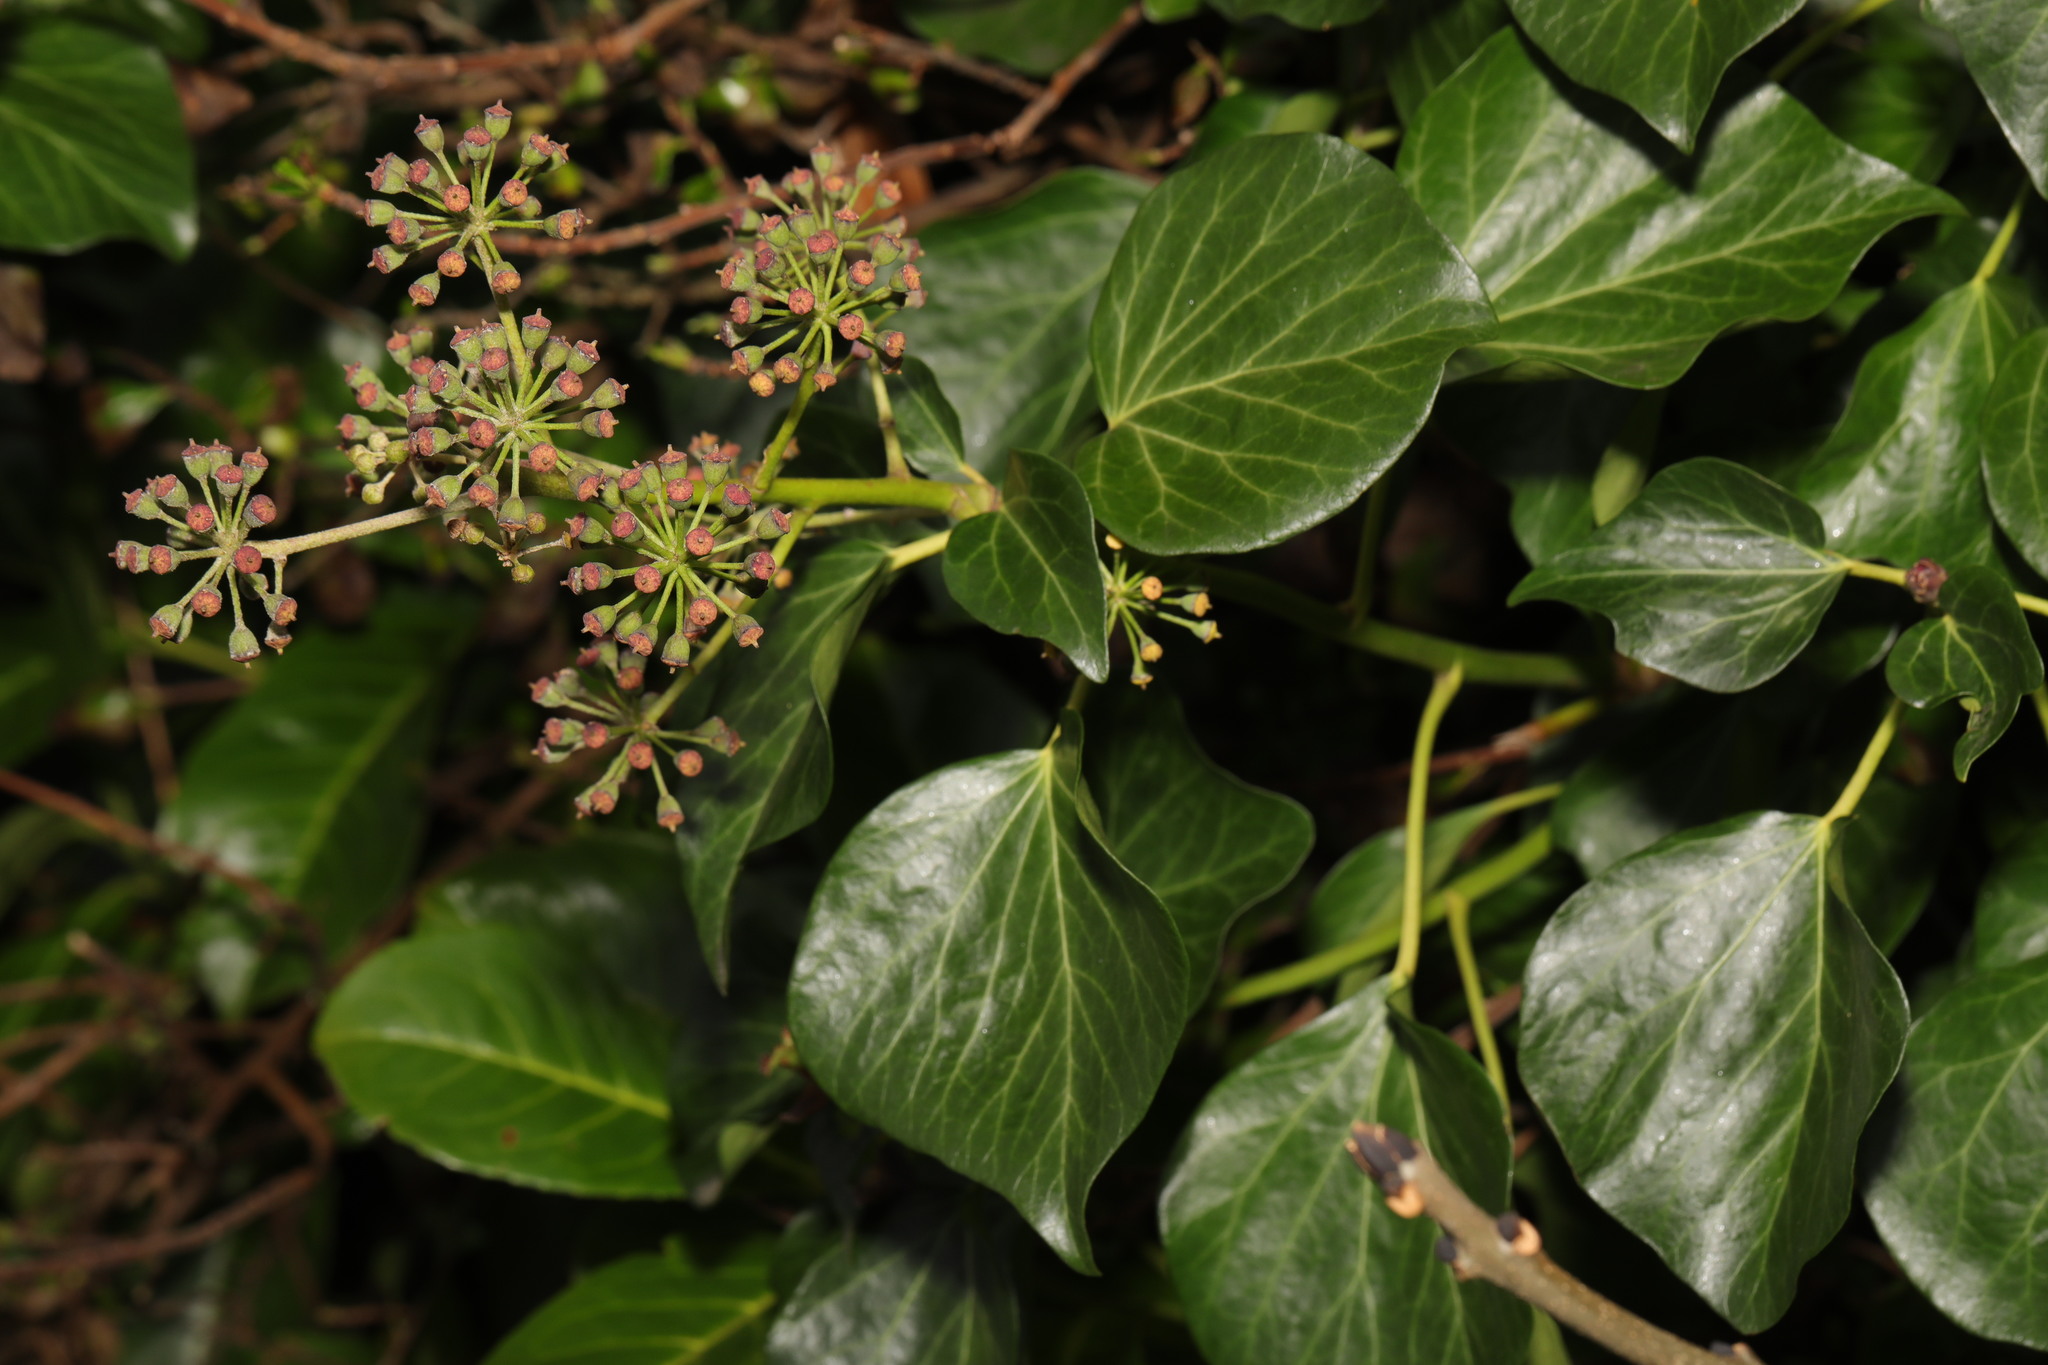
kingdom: Plantae
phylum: Tracheophyta
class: Magnoliopsida
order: Apiales
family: Araliaceae
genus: Hedera
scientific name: Hedera helix
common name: Ivy
